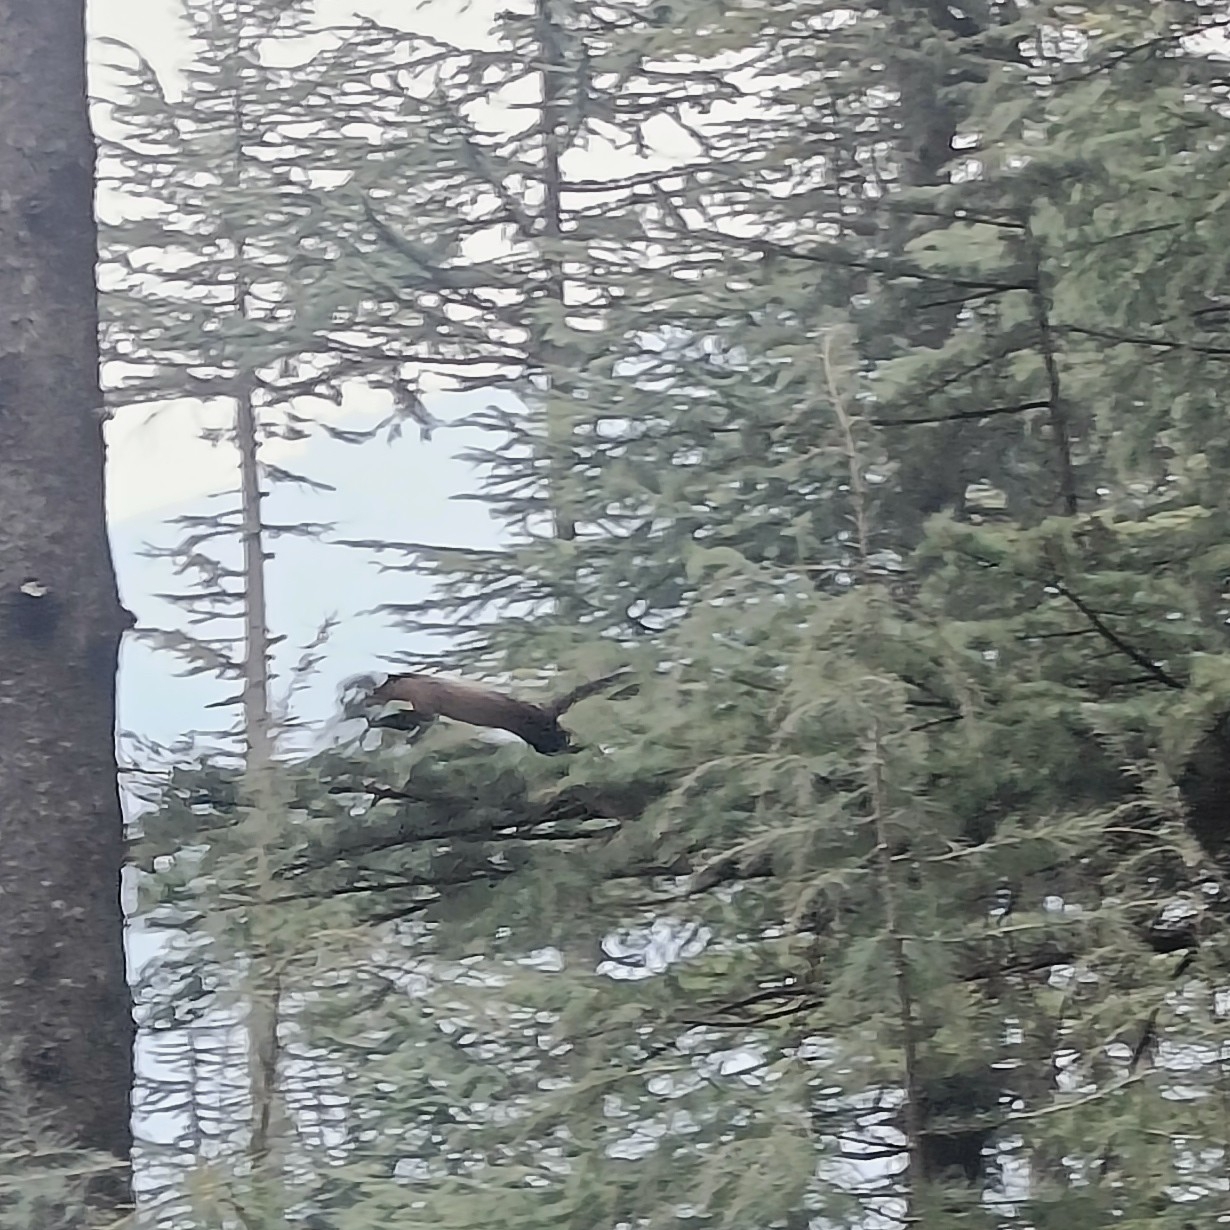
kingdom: Animalia
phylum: Chordata
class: Mammalia
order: Carnivora
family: Mustelidae
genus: Martes
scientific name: Martes flavigula
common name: Yellow-throated marten
